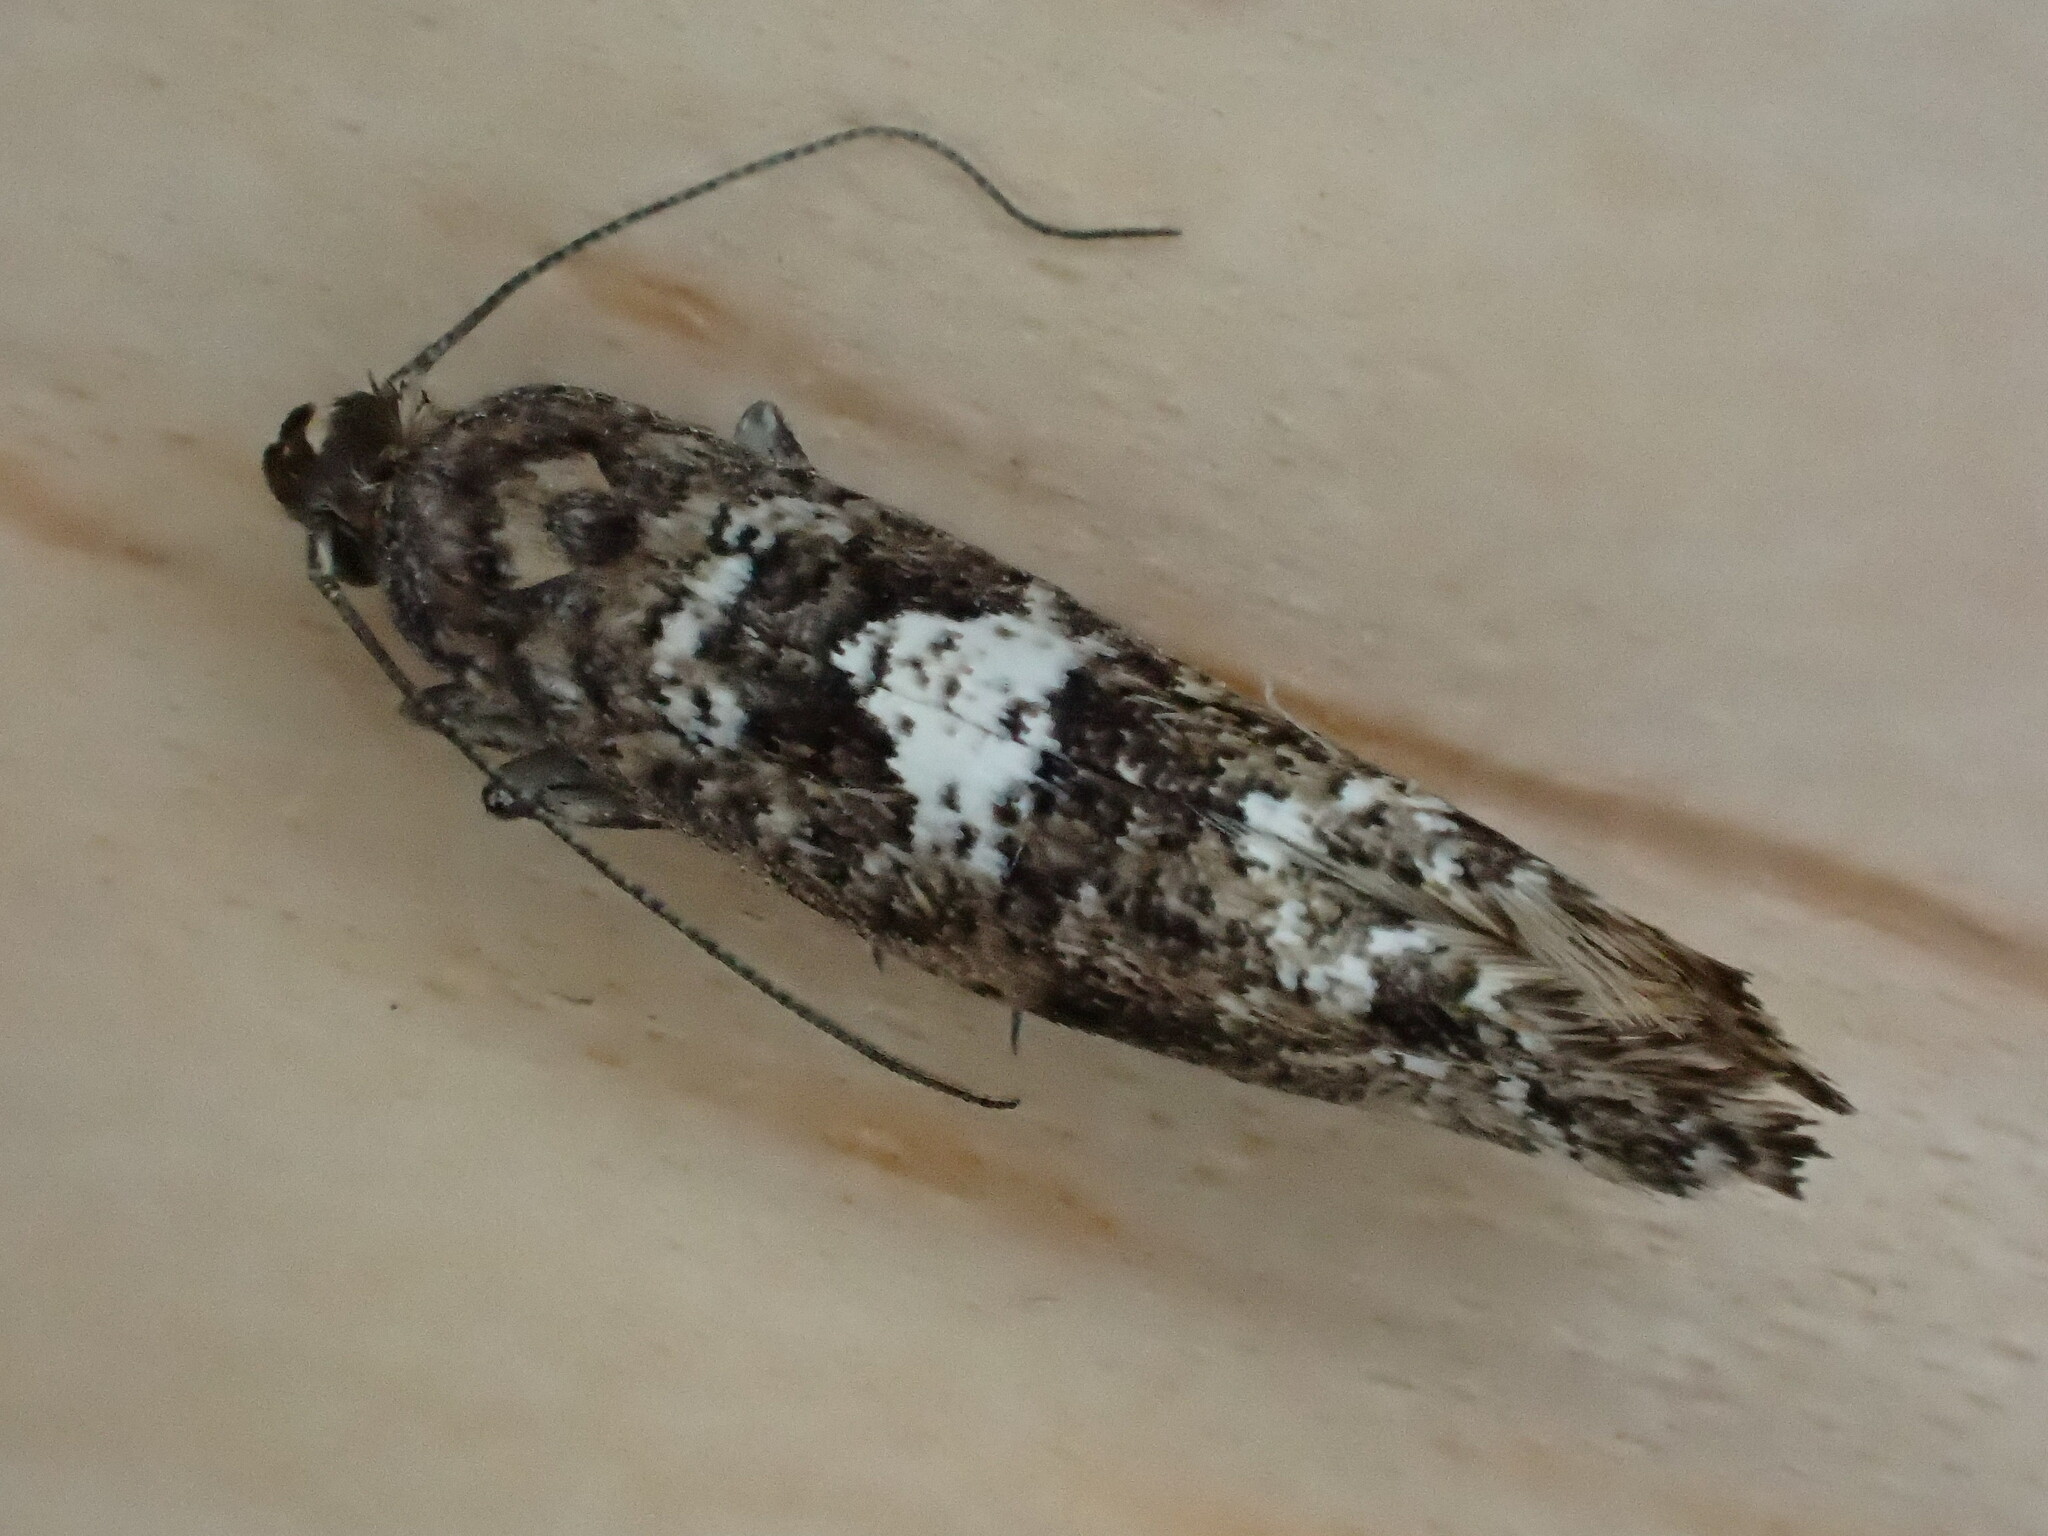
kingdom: Animalia
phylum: Arthropoda
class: Insecta
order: Lepidoptera
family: Glyphipterigidae
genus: Acrolepia
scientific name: Acrolepia assectella
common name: Onion leaf miner
